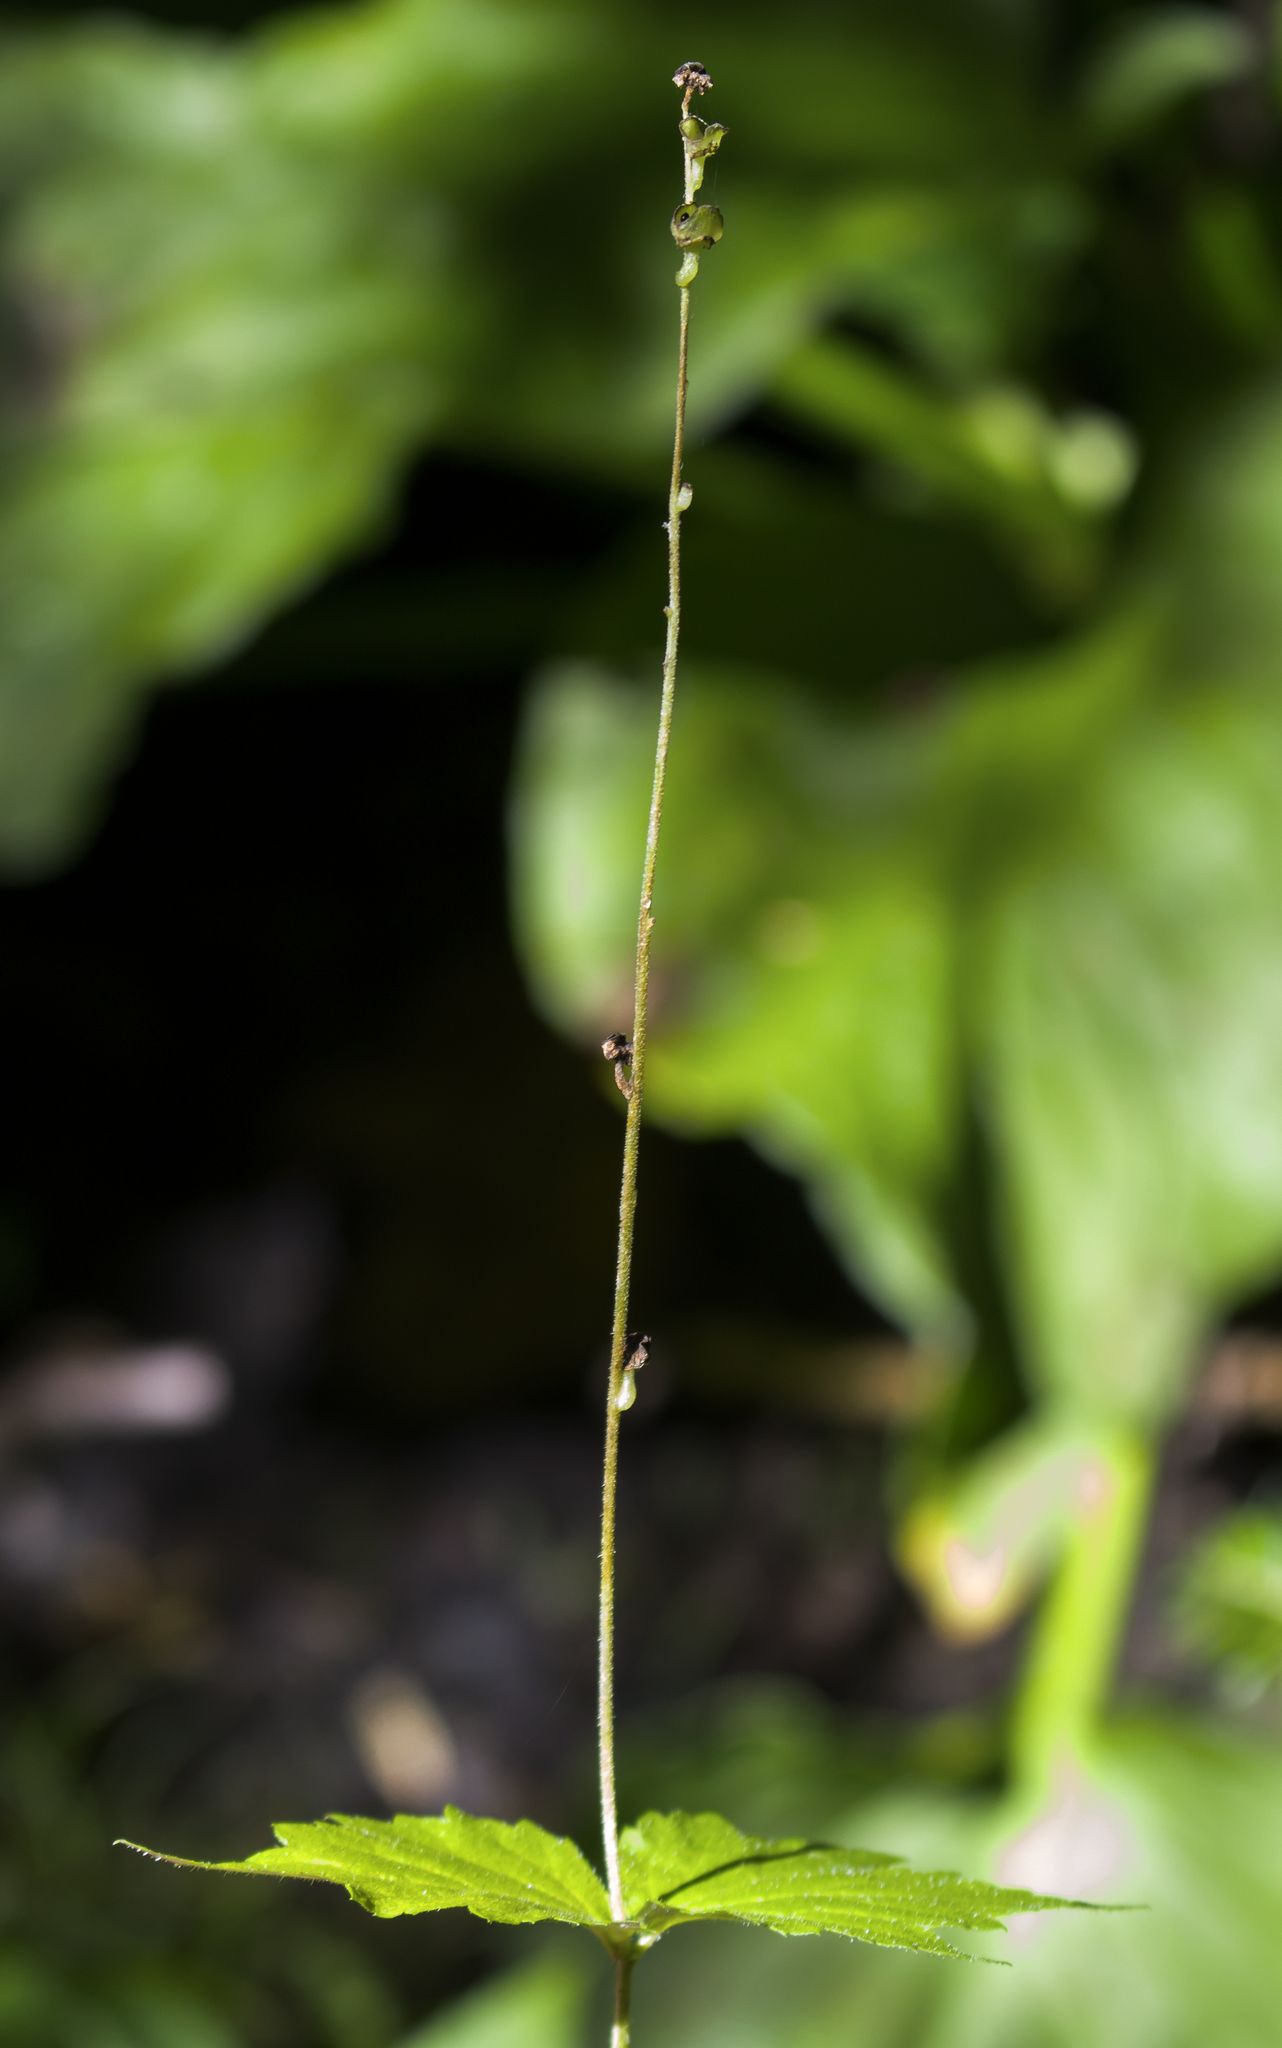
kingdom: Plantae
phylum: Tracheophyta
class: Magnoliopsida
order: Saxifragales
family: Saxifragaceae
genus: Mitella
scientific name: Mitella diphylla
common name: Coolwort
